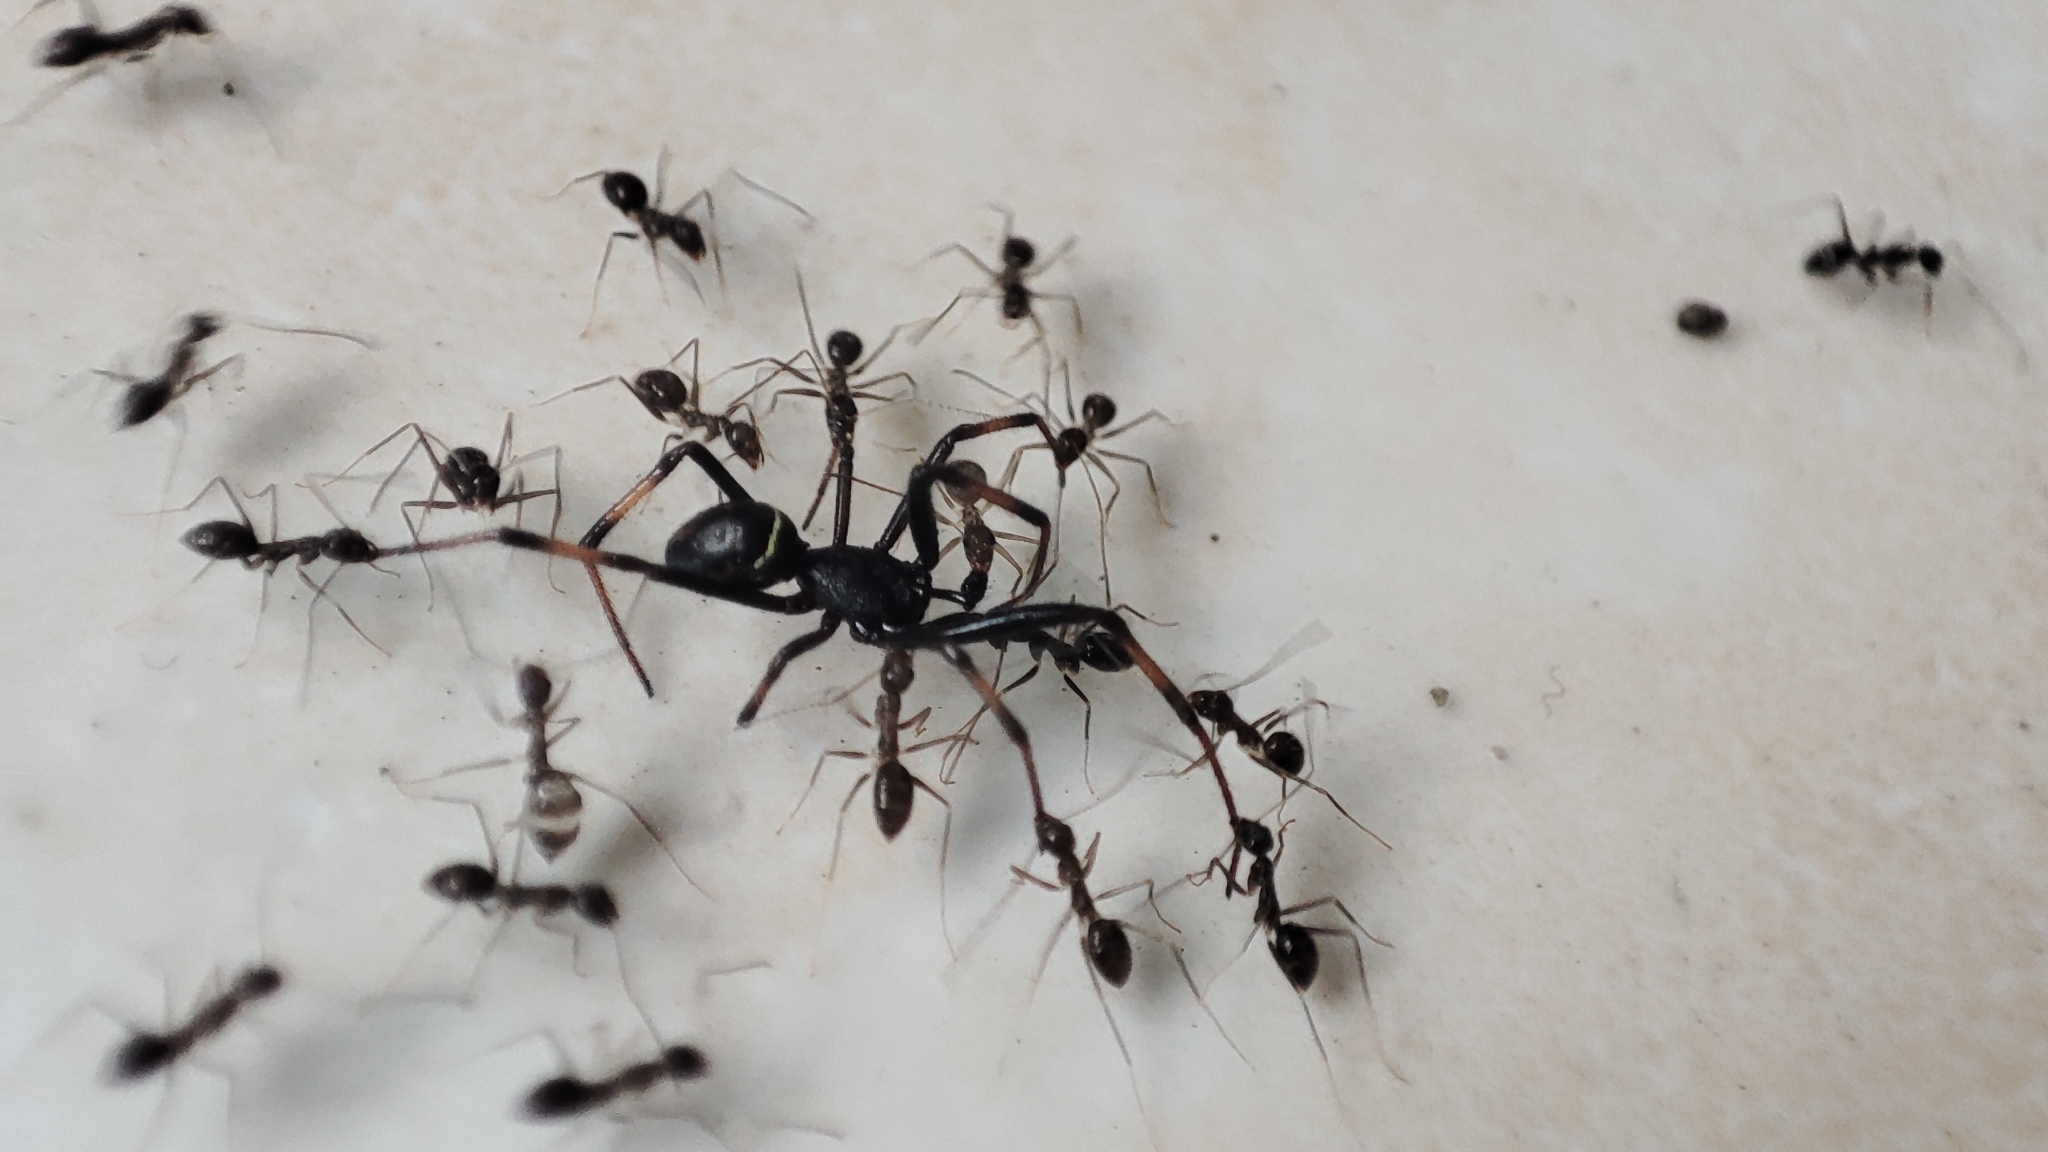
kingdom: Animalia
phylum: Arthropoda
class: Insecta
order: Hymenoptera
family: Formicidae
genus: Paratrechina
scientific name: Paratrechina longicornis
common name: Longhorned crazy ant
